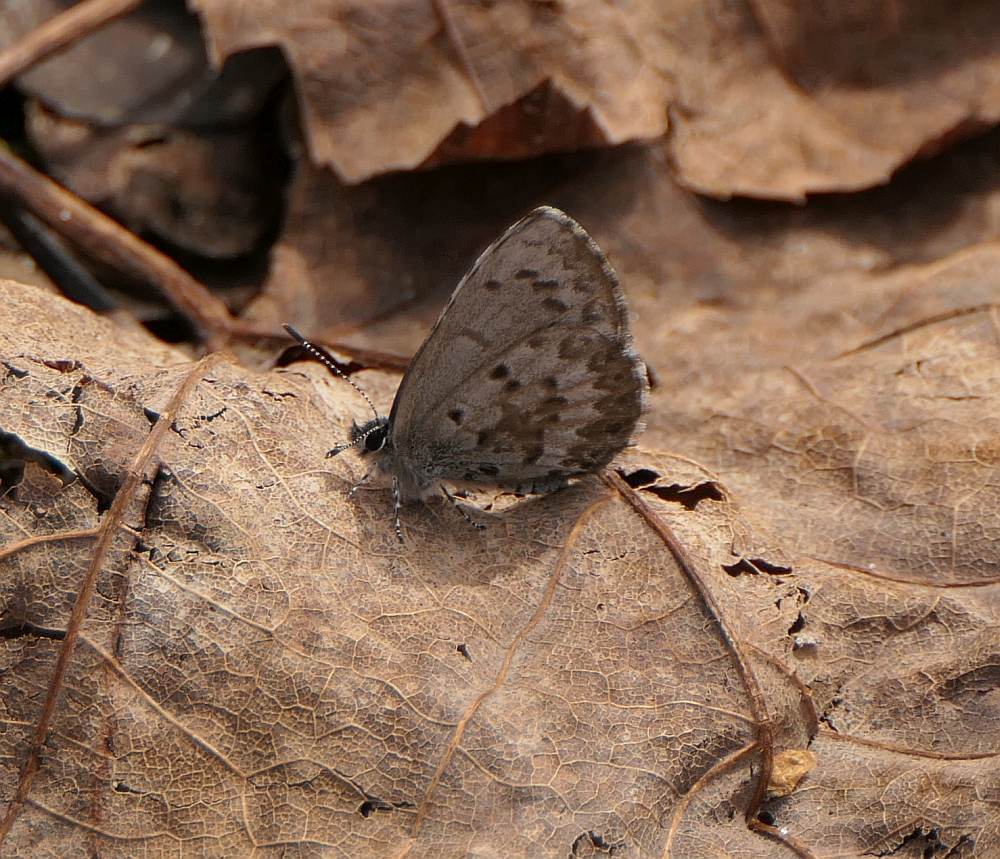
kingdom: Animalia
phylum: Arthropoda
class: Insecta
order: Lepidoptera
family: Lycaenidae
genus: Celastrina
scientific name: Celastrina lucia
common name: Lucia azure
